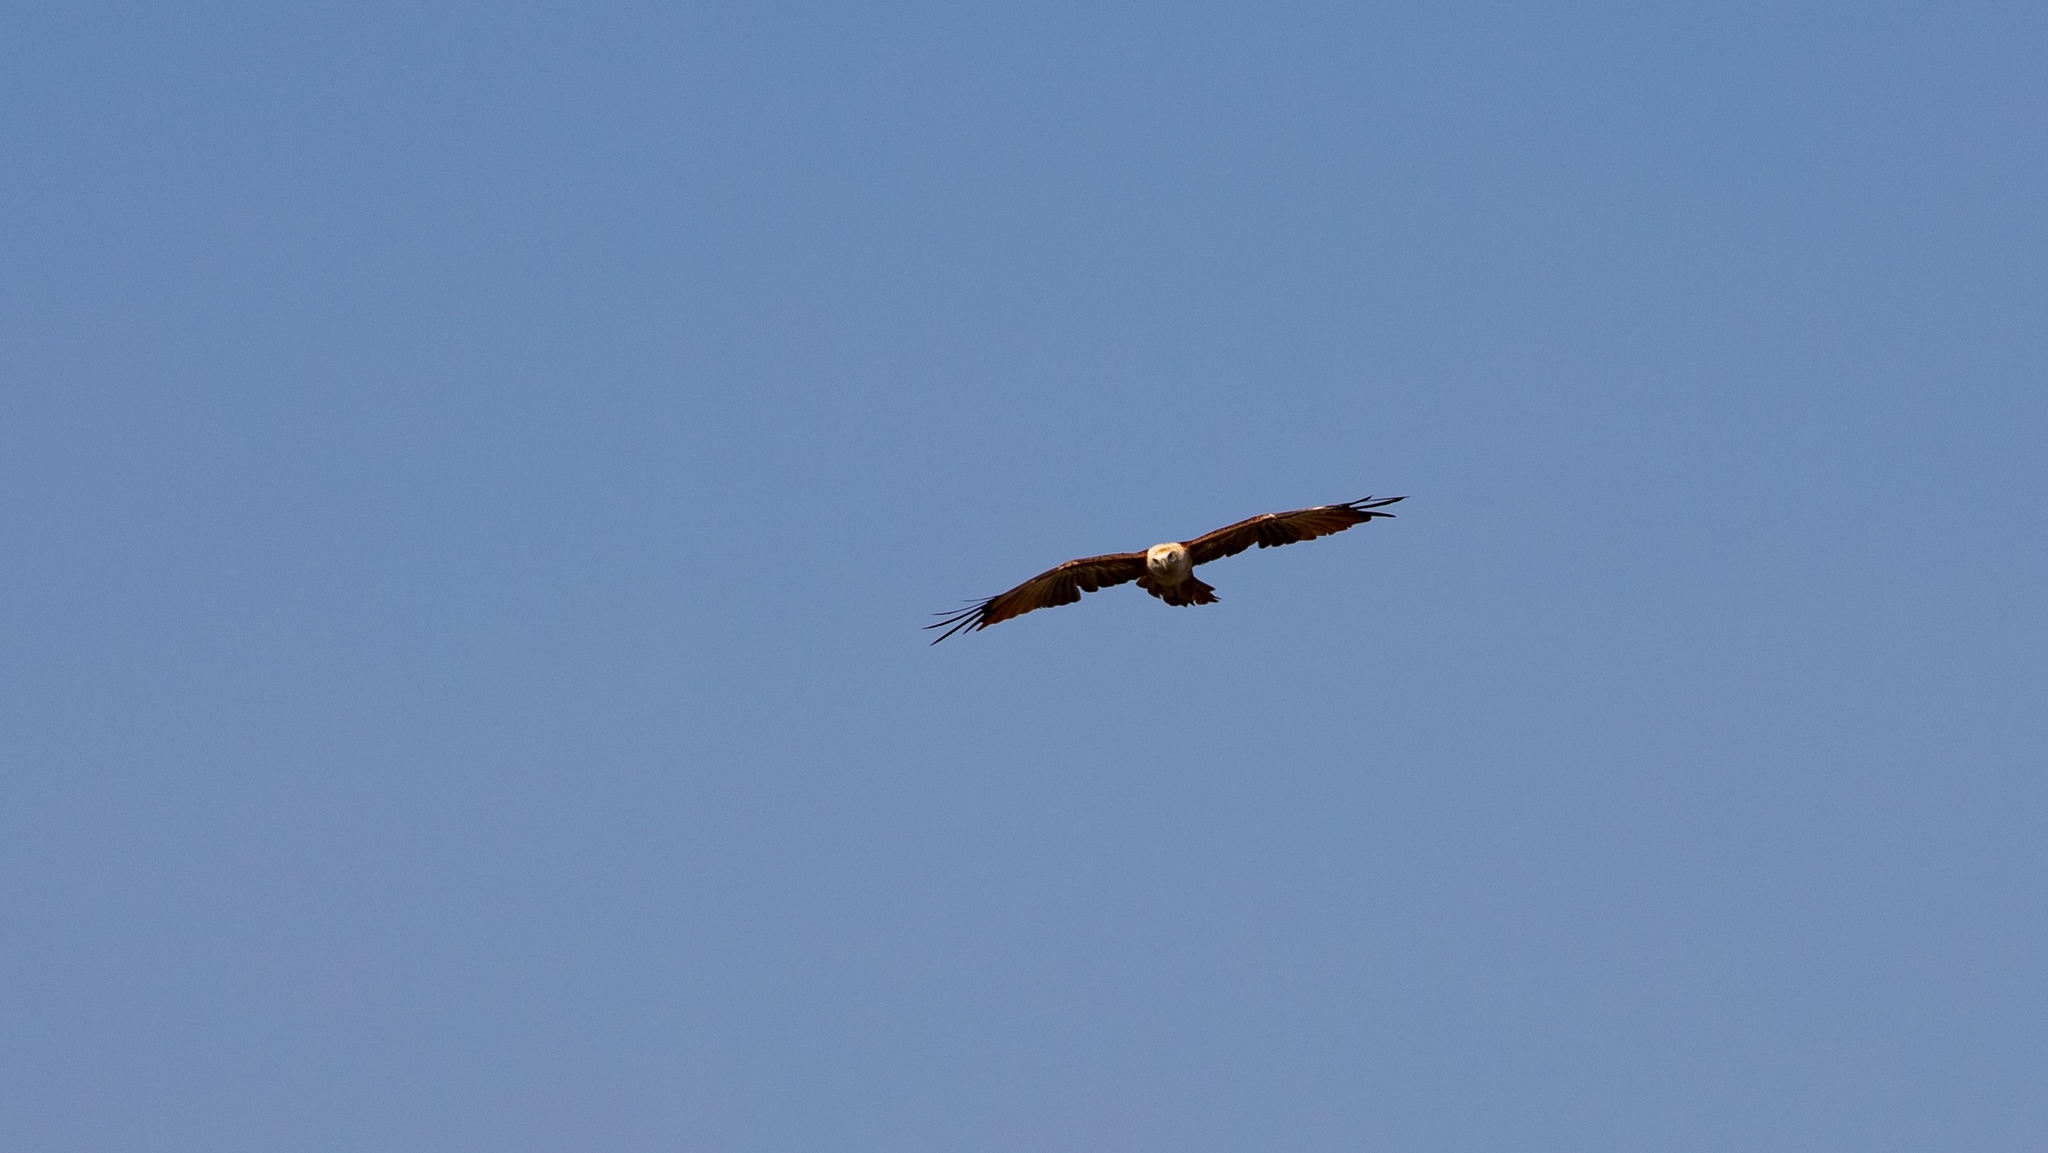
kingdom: Animalia
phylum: Chordata
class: Aves
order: Accipitriformes
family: Accipitridae
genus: Haliastur
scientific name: Haliastur indus
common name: Brahminy kite
